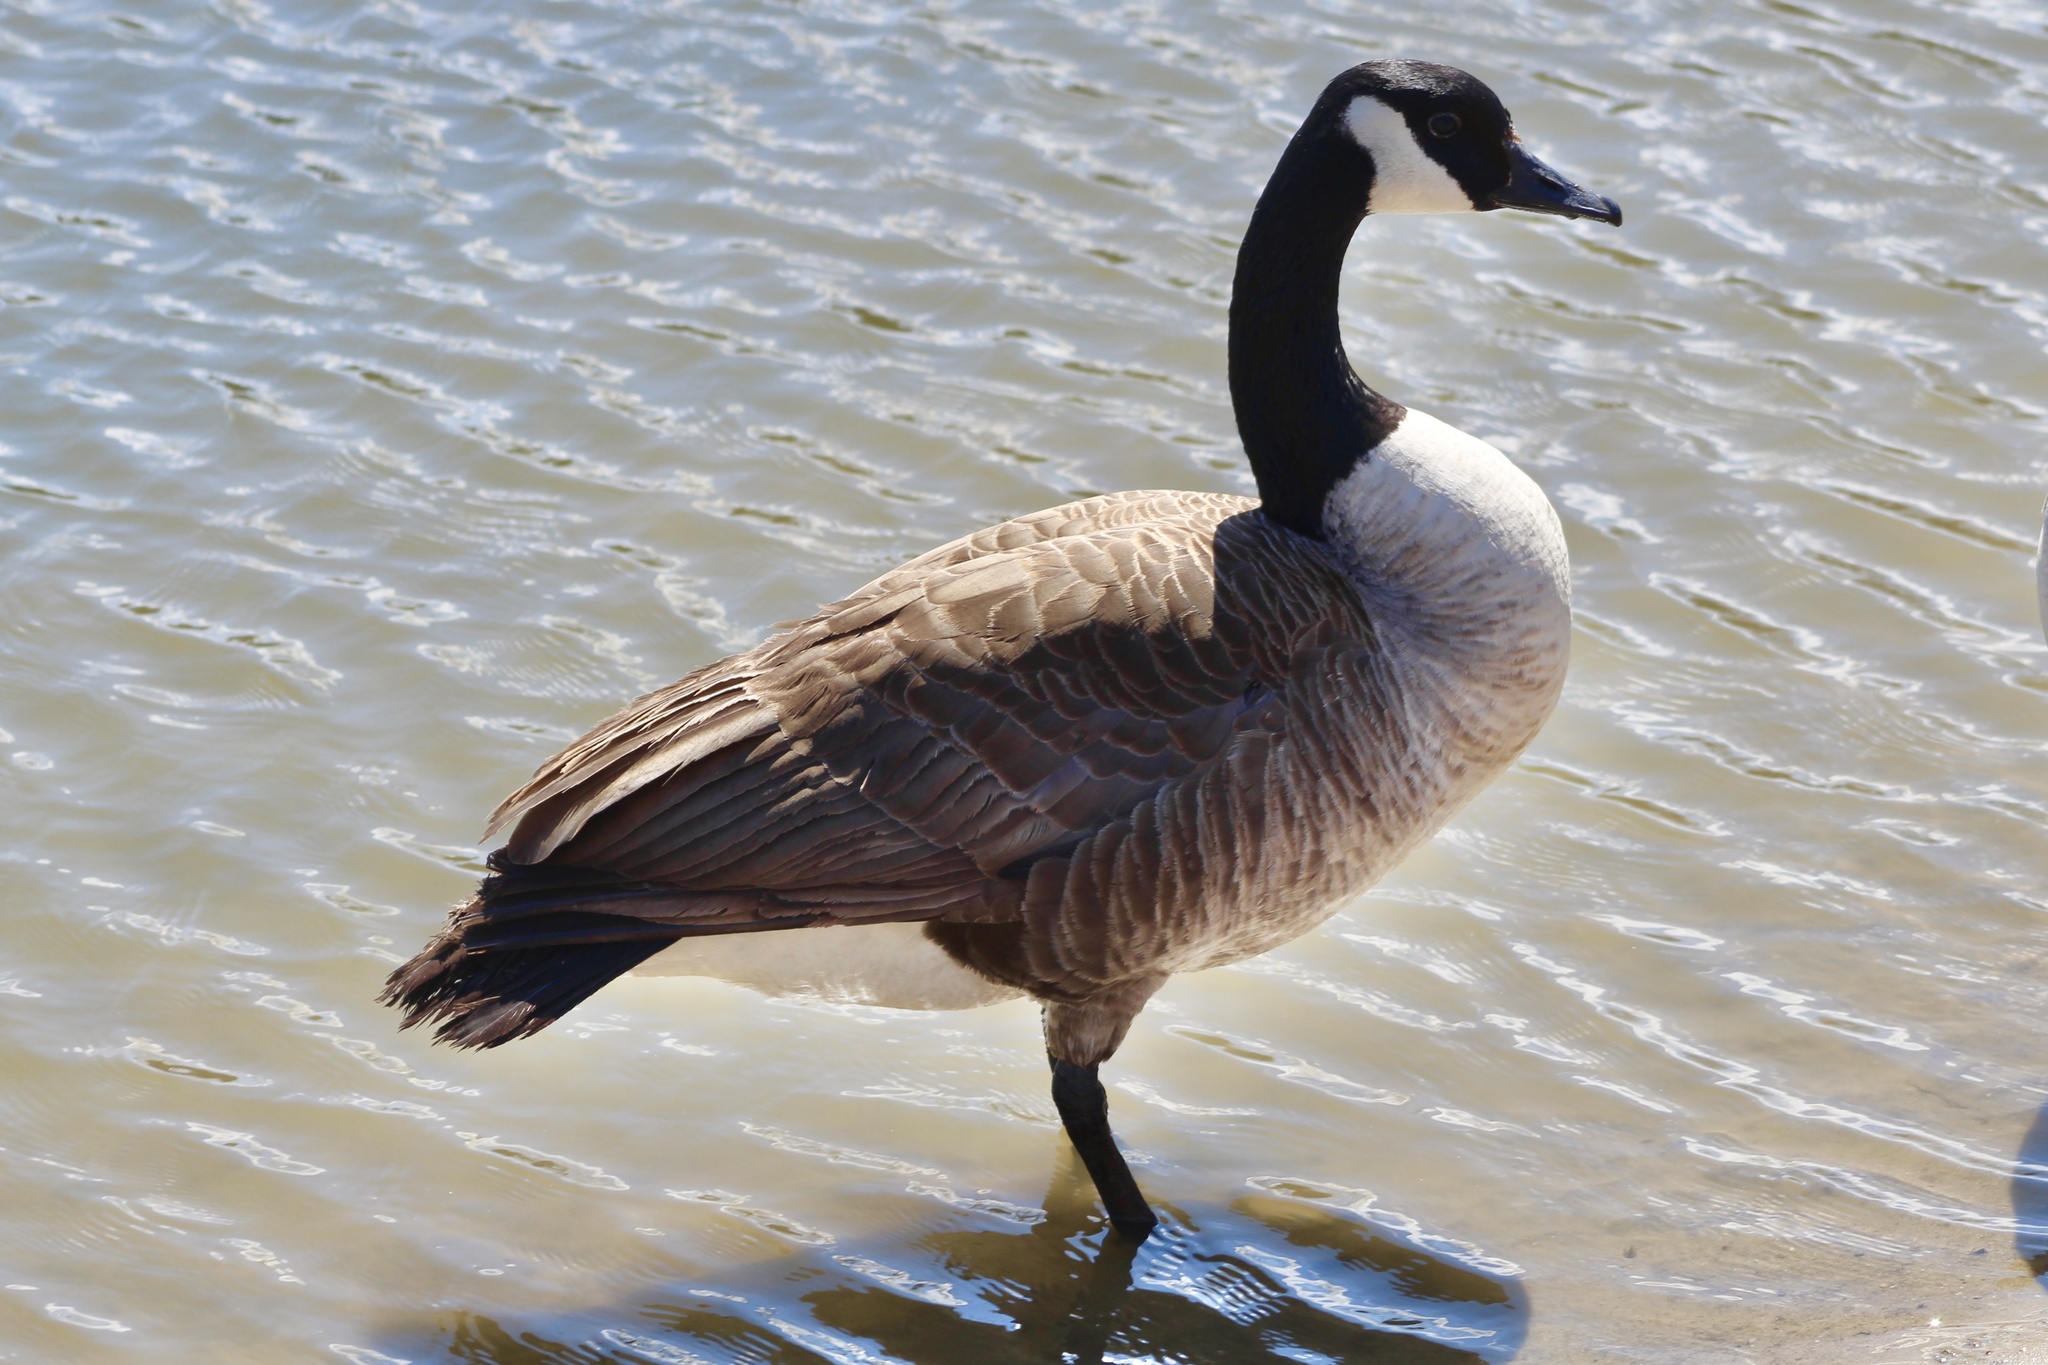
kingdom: Animalia
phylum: Chordata
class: Aves
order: Anseriformes
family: Anatidae
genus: Branta
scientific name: Branta canadensis
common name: Canada goose
